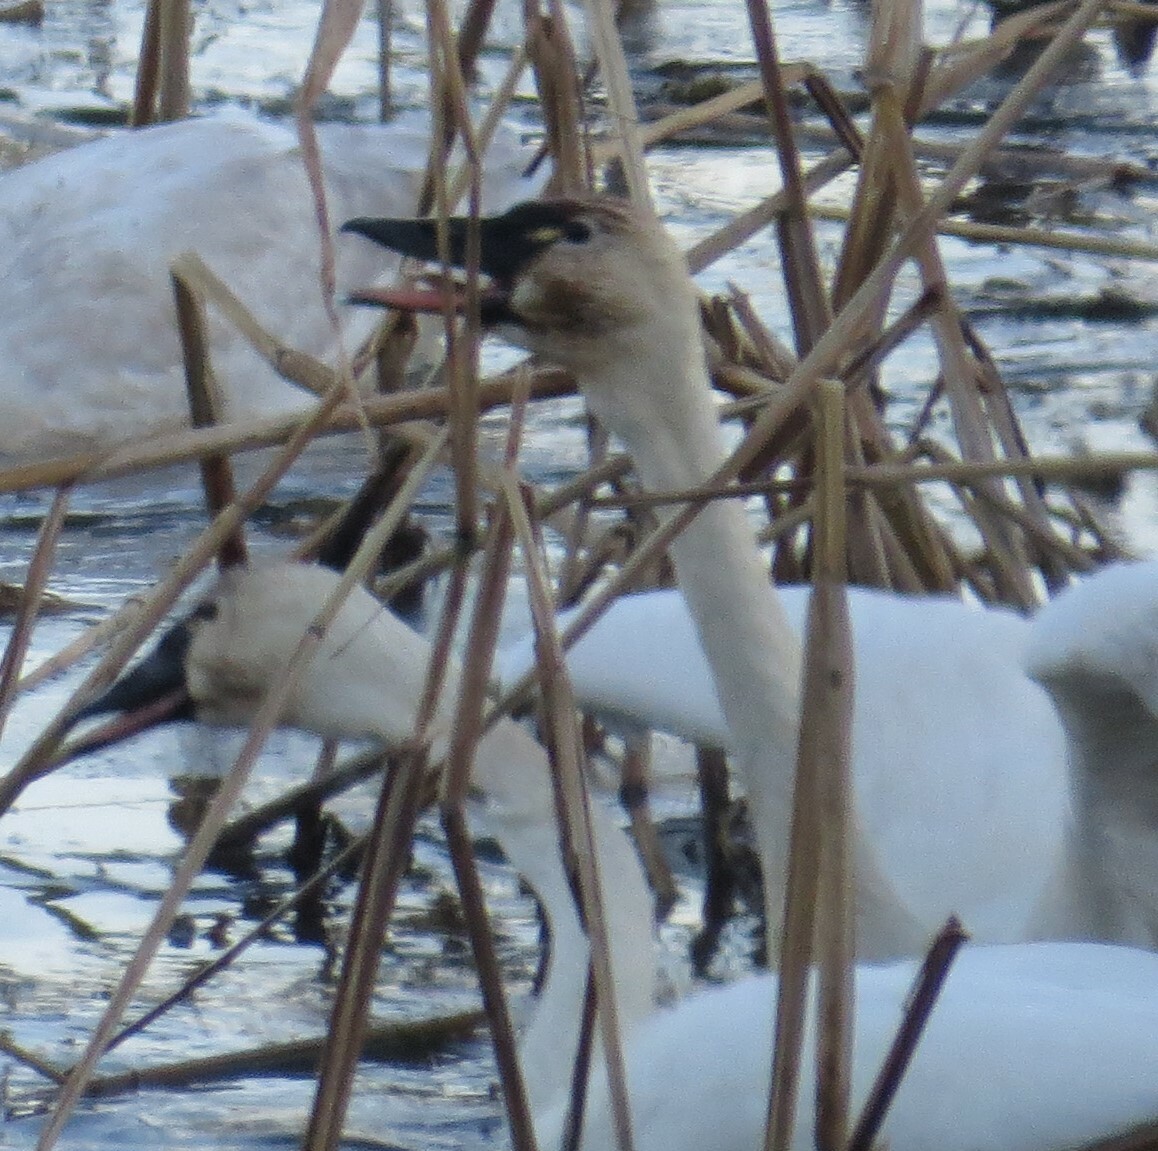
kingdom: Animalia
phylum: Chordata
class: Aves
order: Anseriformes
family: Anatidae
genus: Cygnus
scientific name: Cygnus columbianus
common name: Tundra swan
